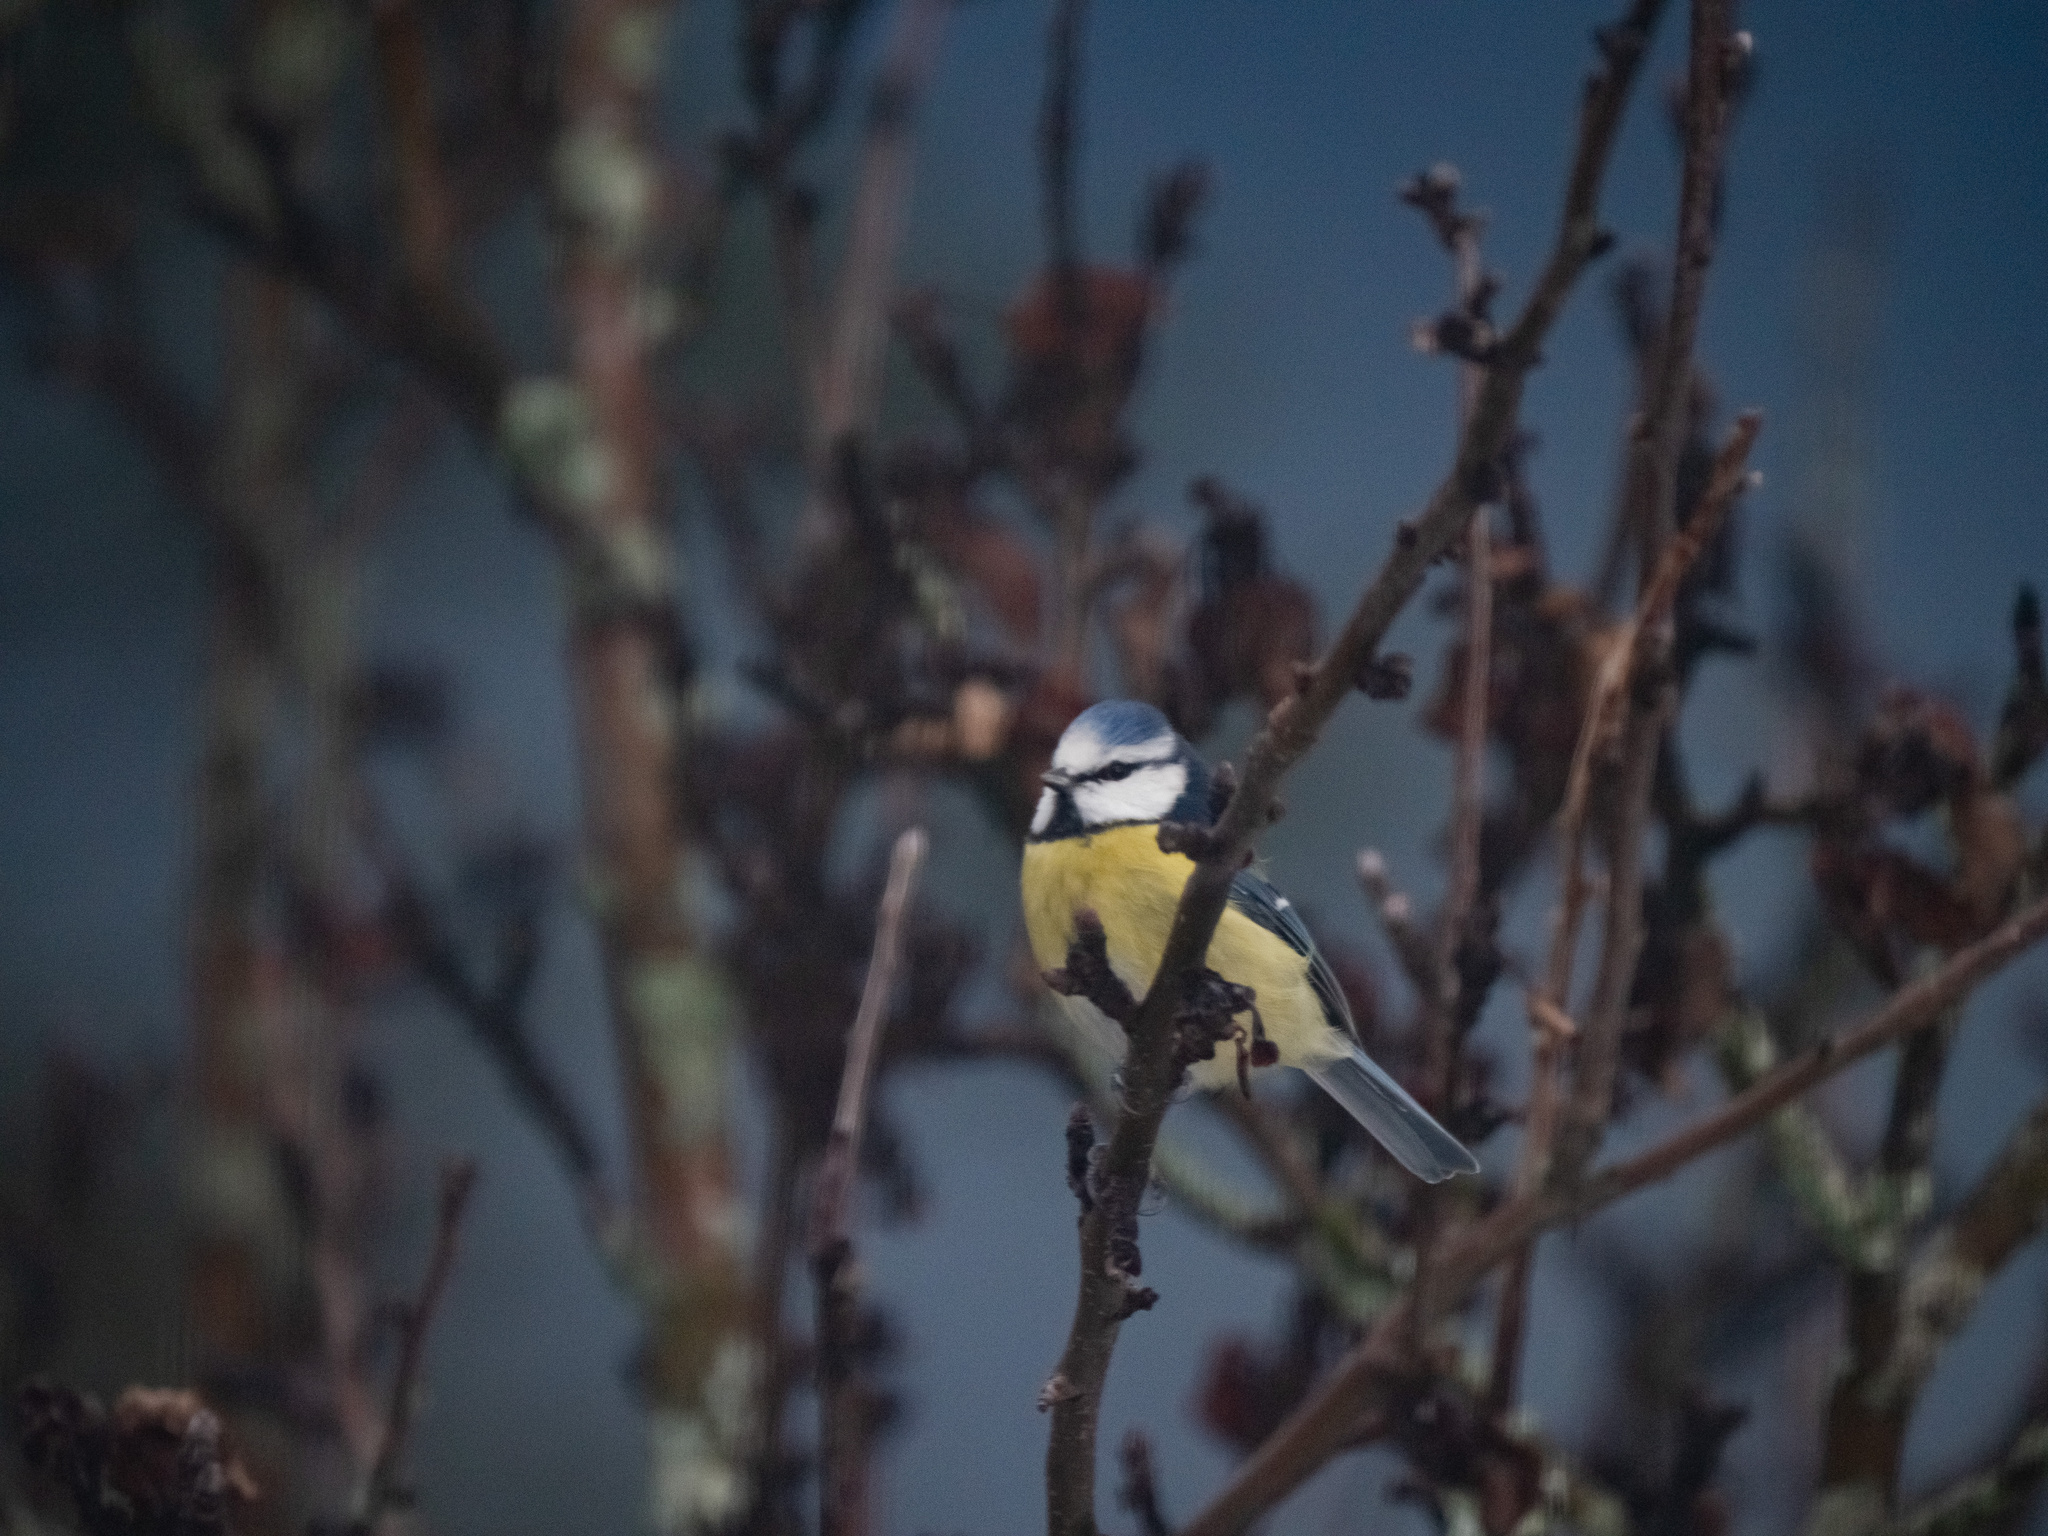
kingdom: Animalia
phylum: Chordata
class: Aves
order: Passeriformes
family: Paridae
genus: Cyanistes
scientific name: Cyanistes caeruleus
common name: Eurasian blue tit
